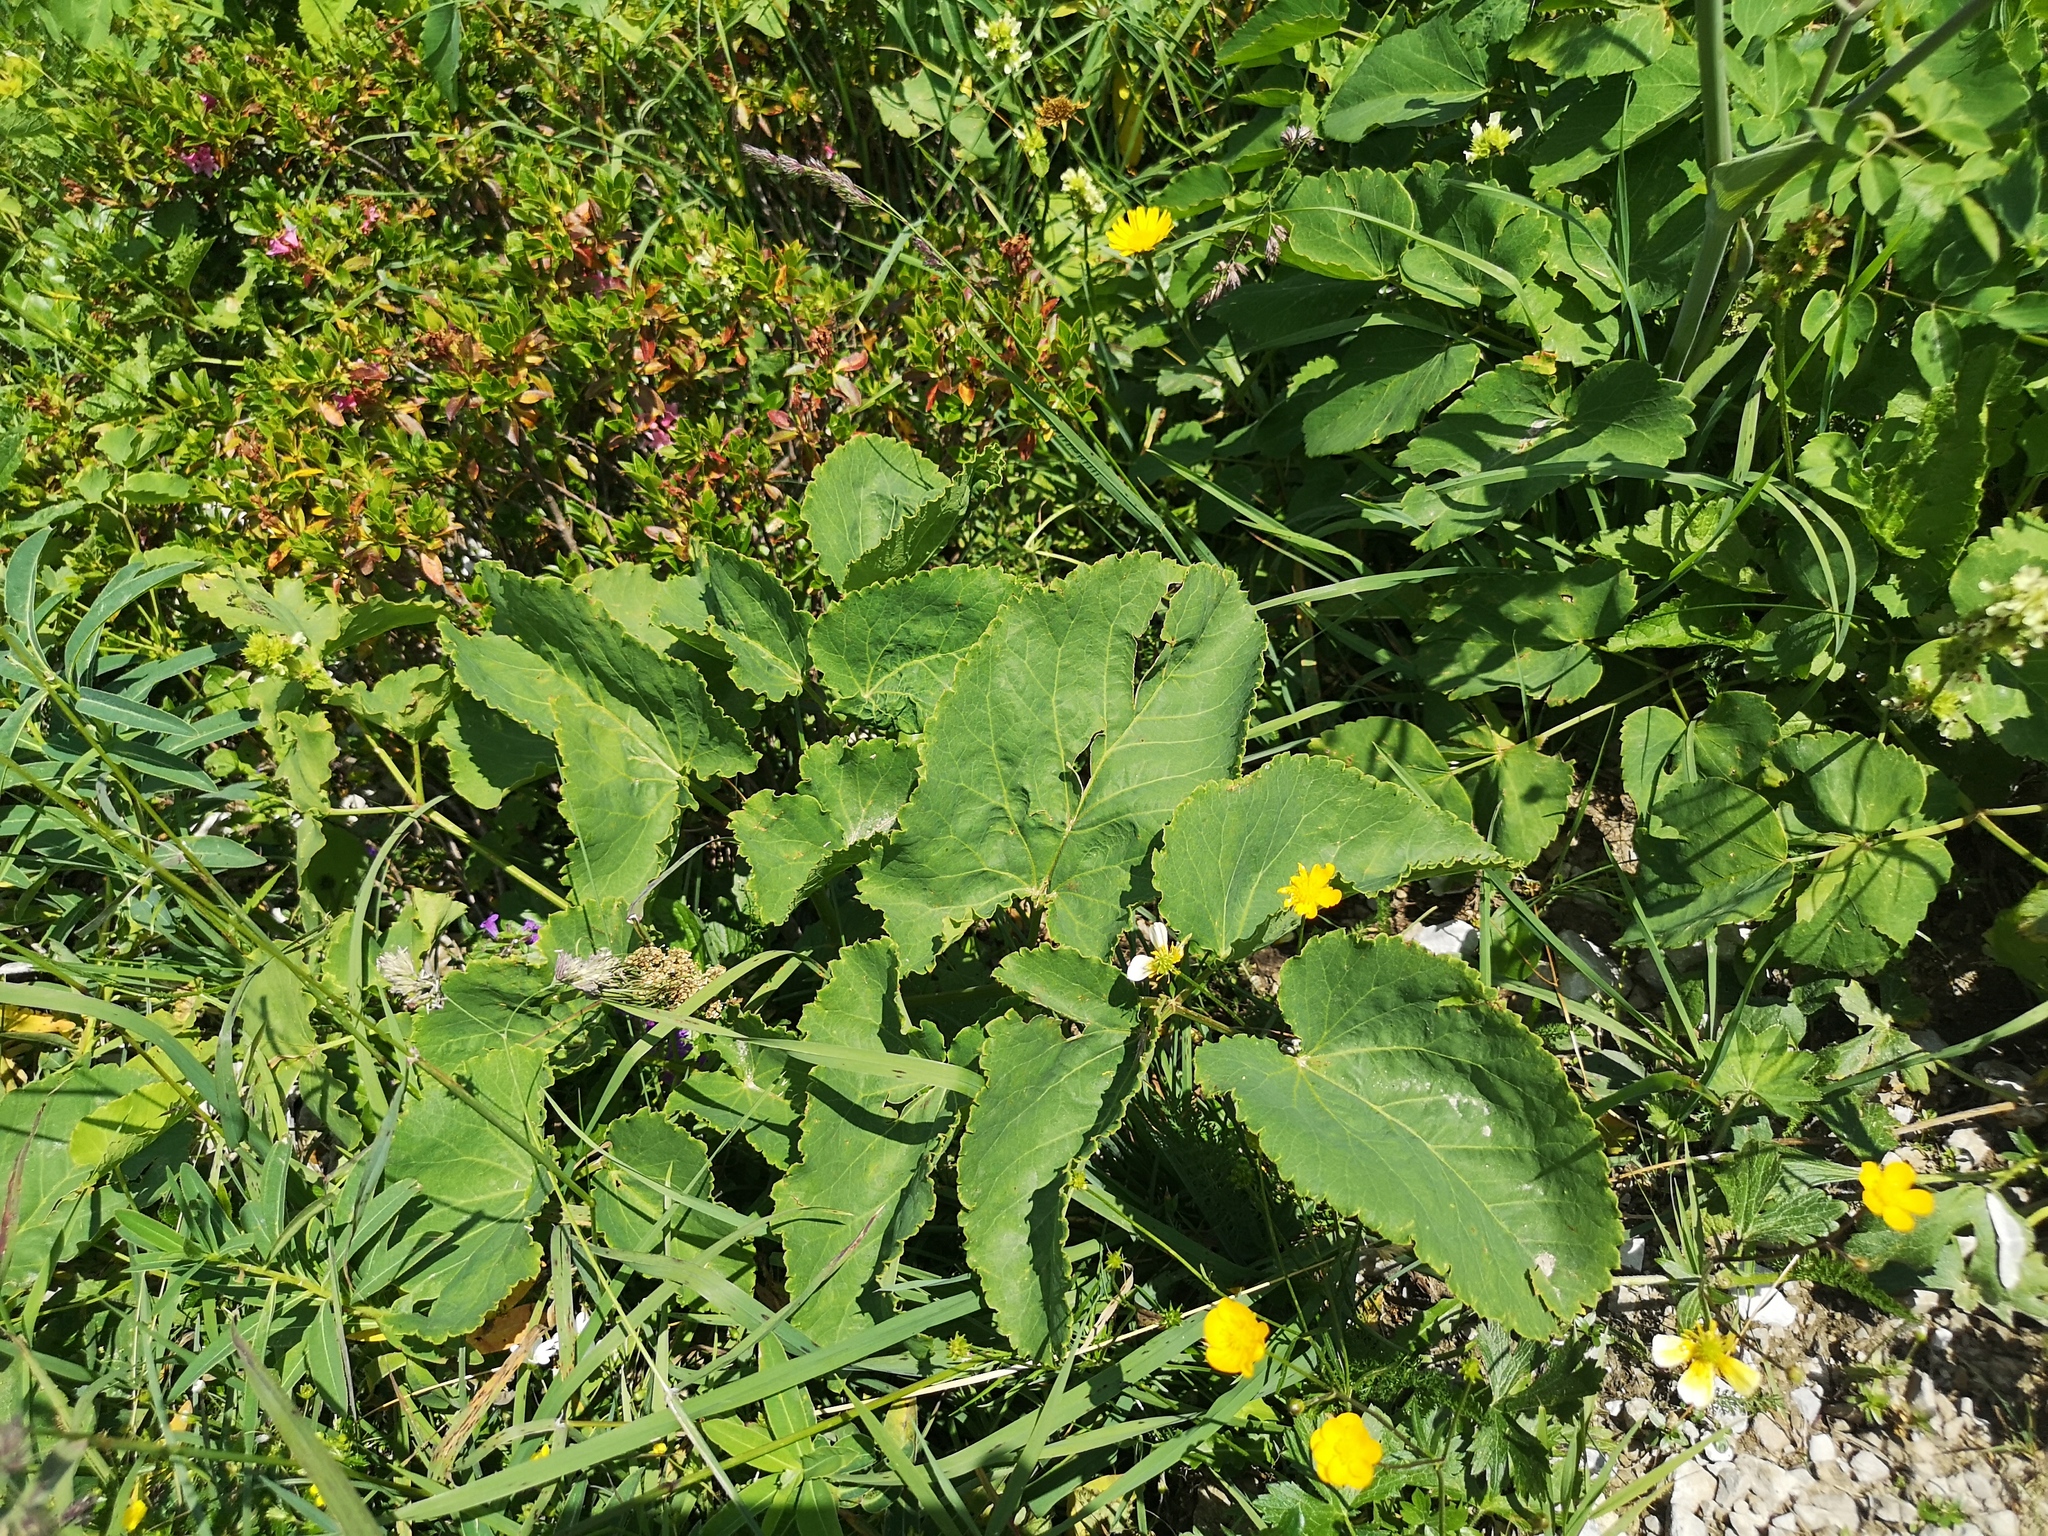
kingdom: Plantae
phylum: Tracheophyta
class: Magnoliopsida
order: Apiales
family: Apiaceae
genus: Laserpitium
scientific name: Laserpitium latifolium
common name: Broadleaf sermountain
